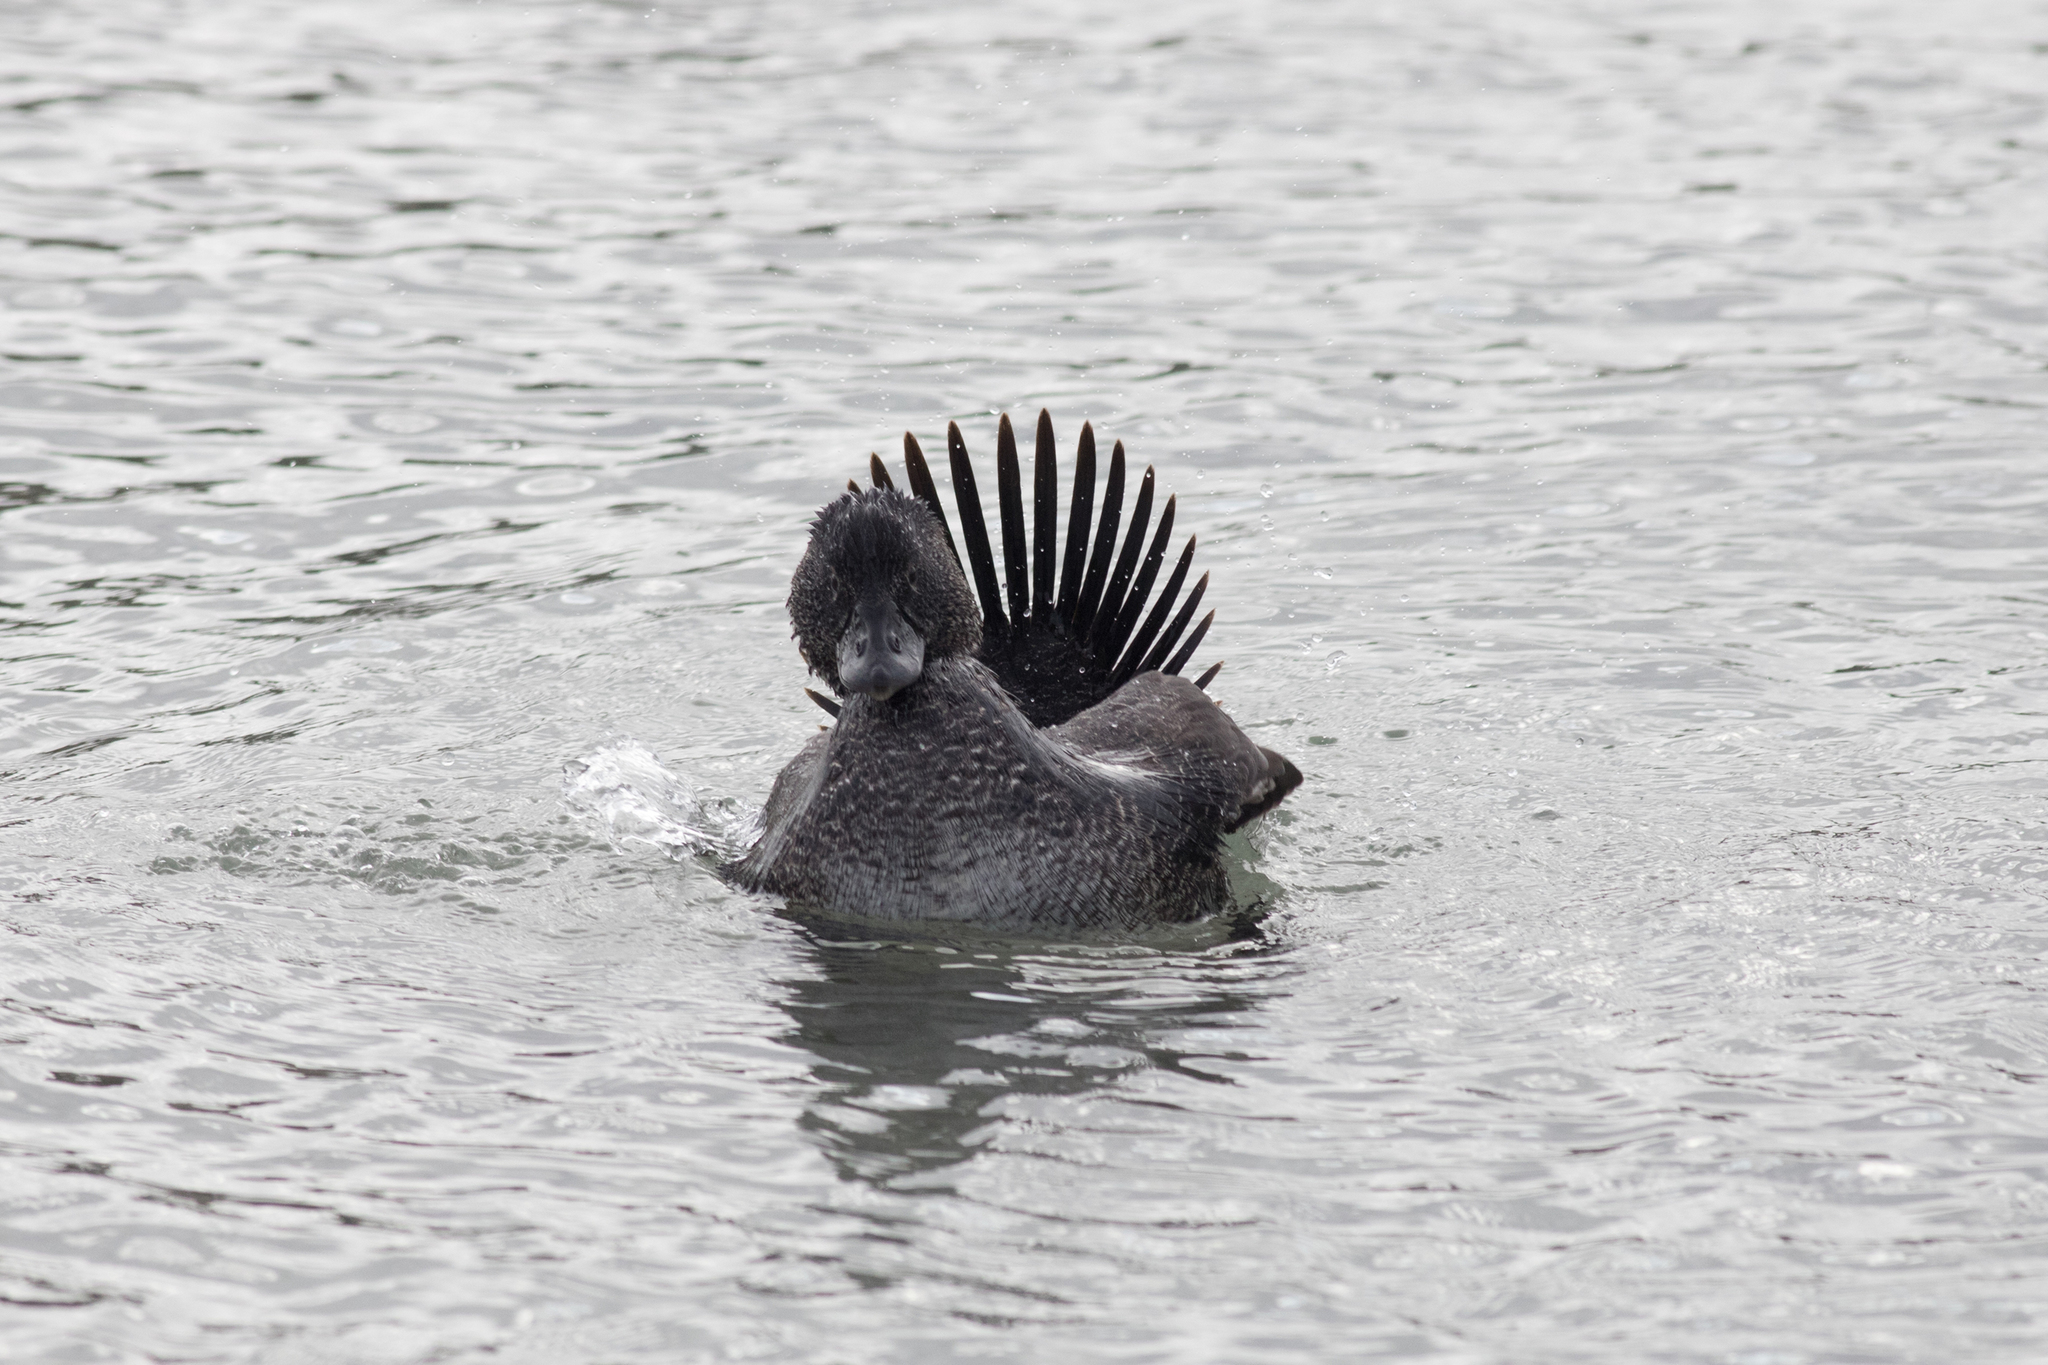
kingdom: Animalia
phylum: Chordata
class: Aves
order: Anseriformes
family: Anatidae
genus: Biziura
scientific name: Biziura lobata
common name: Musk duck
